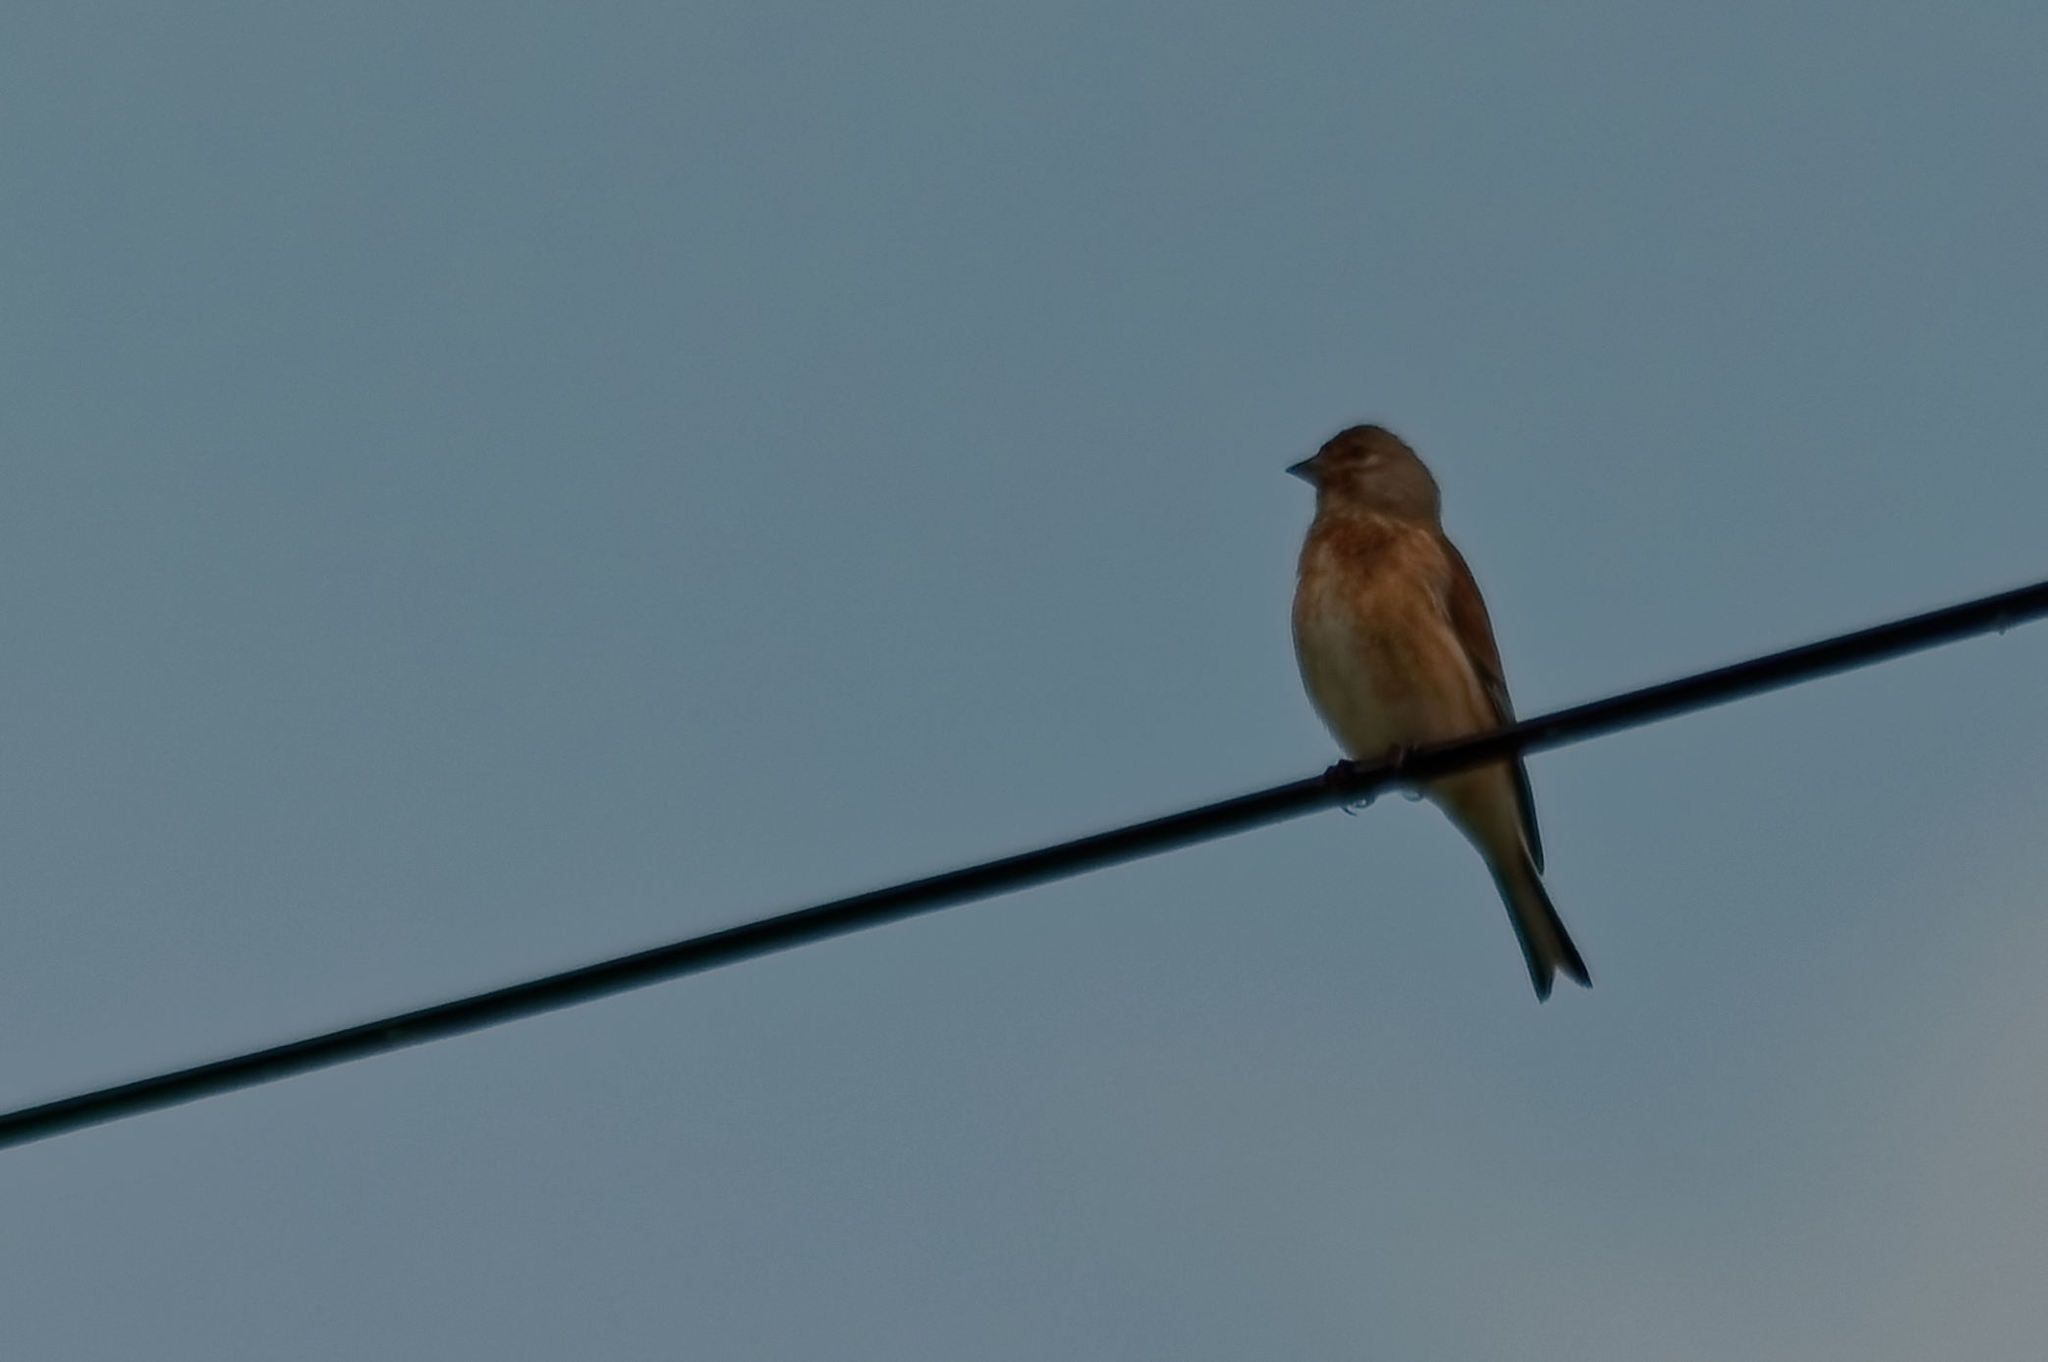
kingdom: Animalia
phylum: Chordata
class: Aves
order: Passeriformes
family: Fringillidae
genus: Linaria
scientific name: Linaria cannabina
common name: Common linnet
